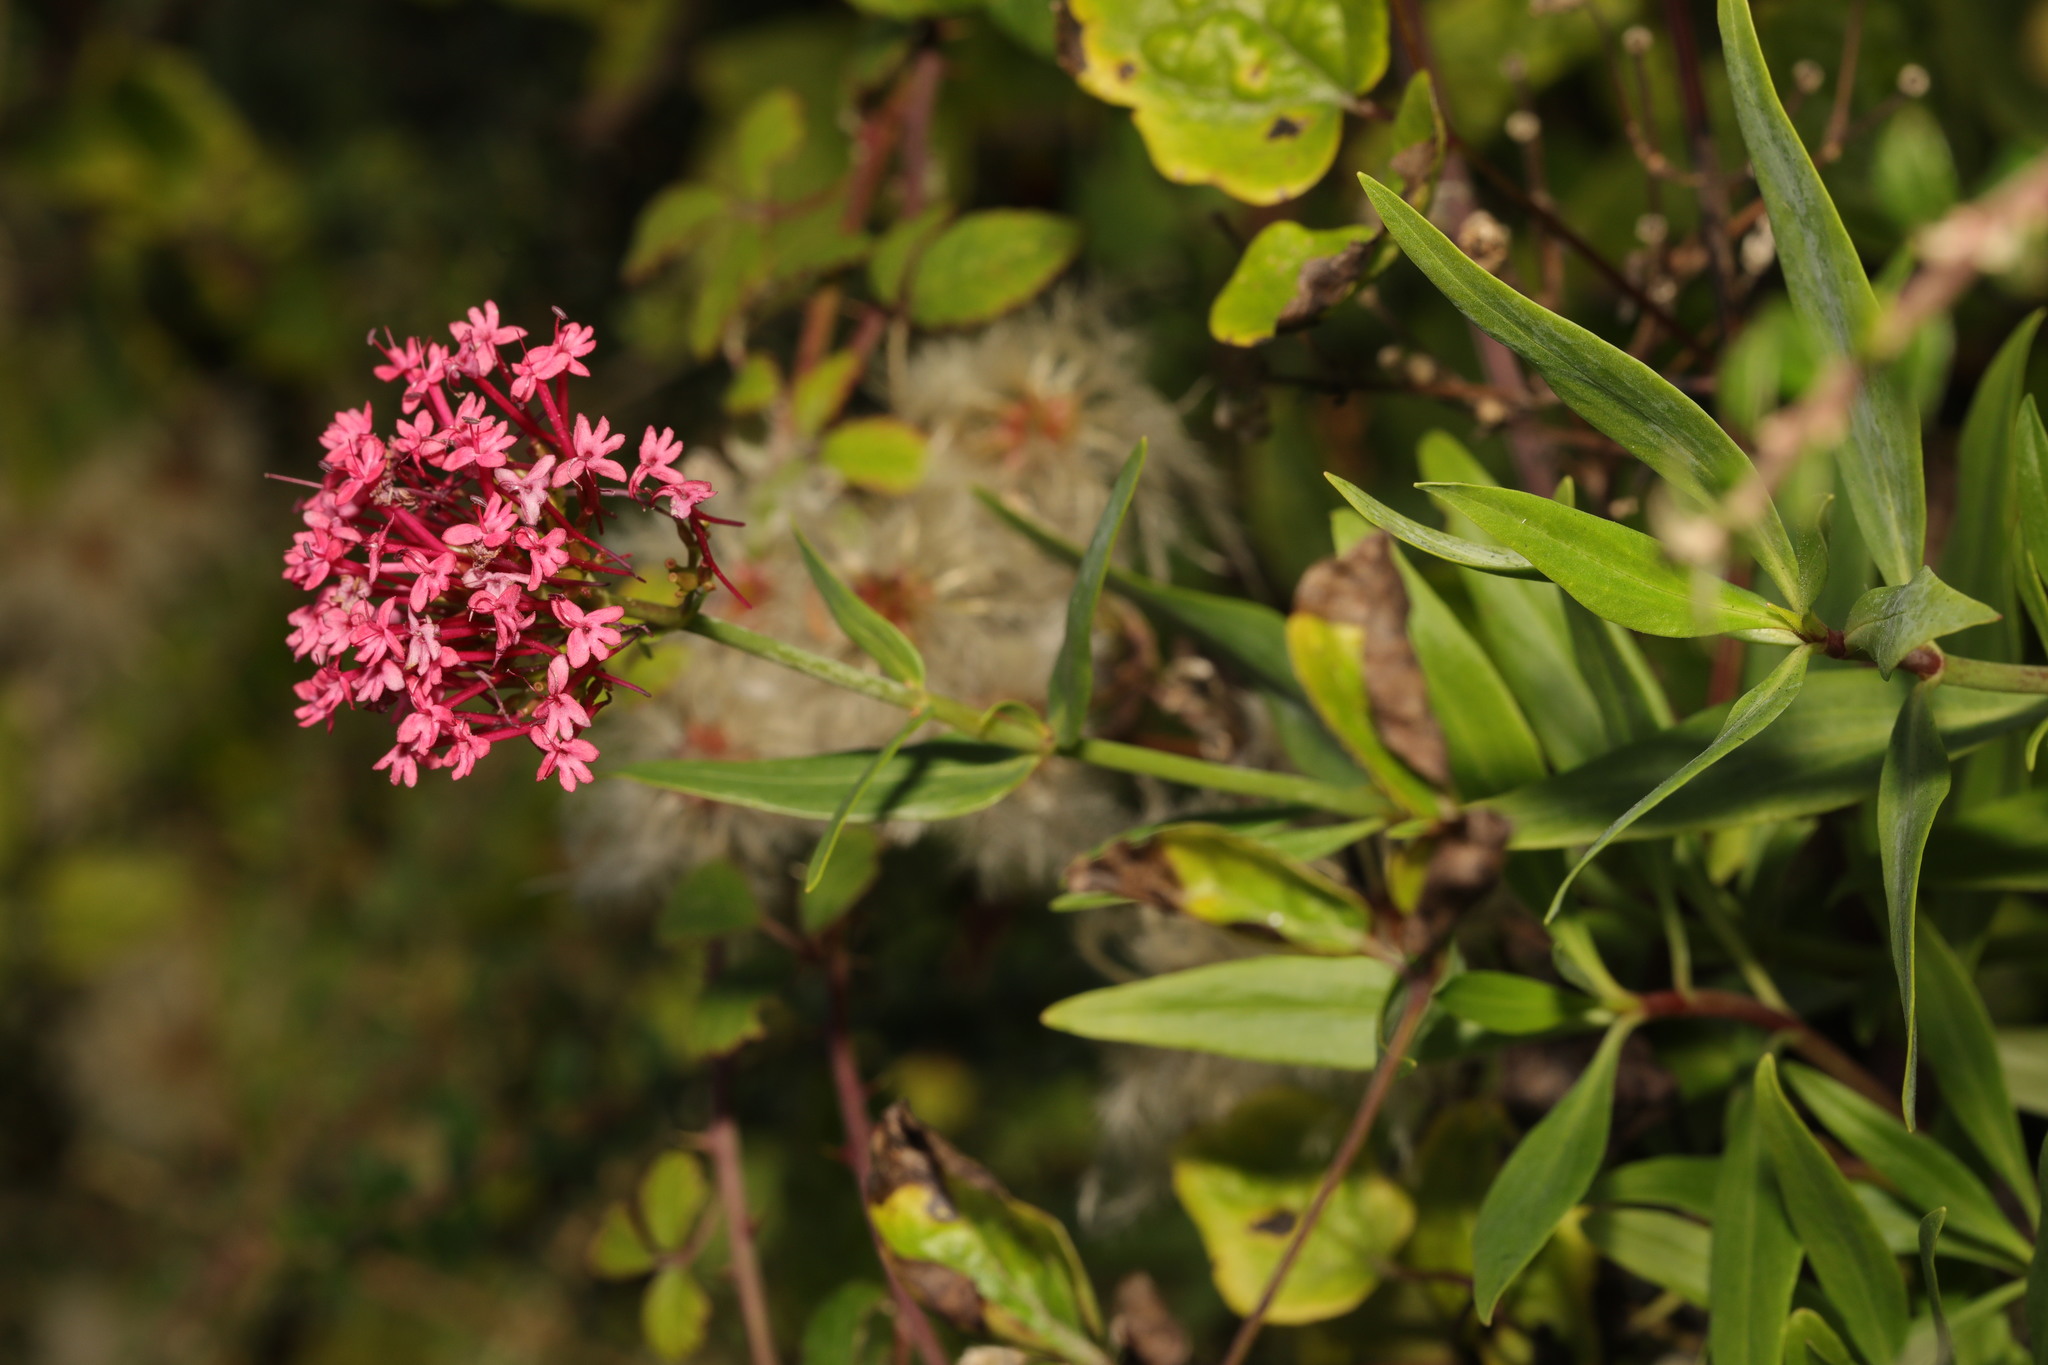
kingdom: Plantae
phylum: Tracheophyta
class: Magnoliopsida
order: Dipsacales
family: Caprifoliaceae
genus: Centranthus
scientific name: Centranthus ruber
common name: Red valerian
